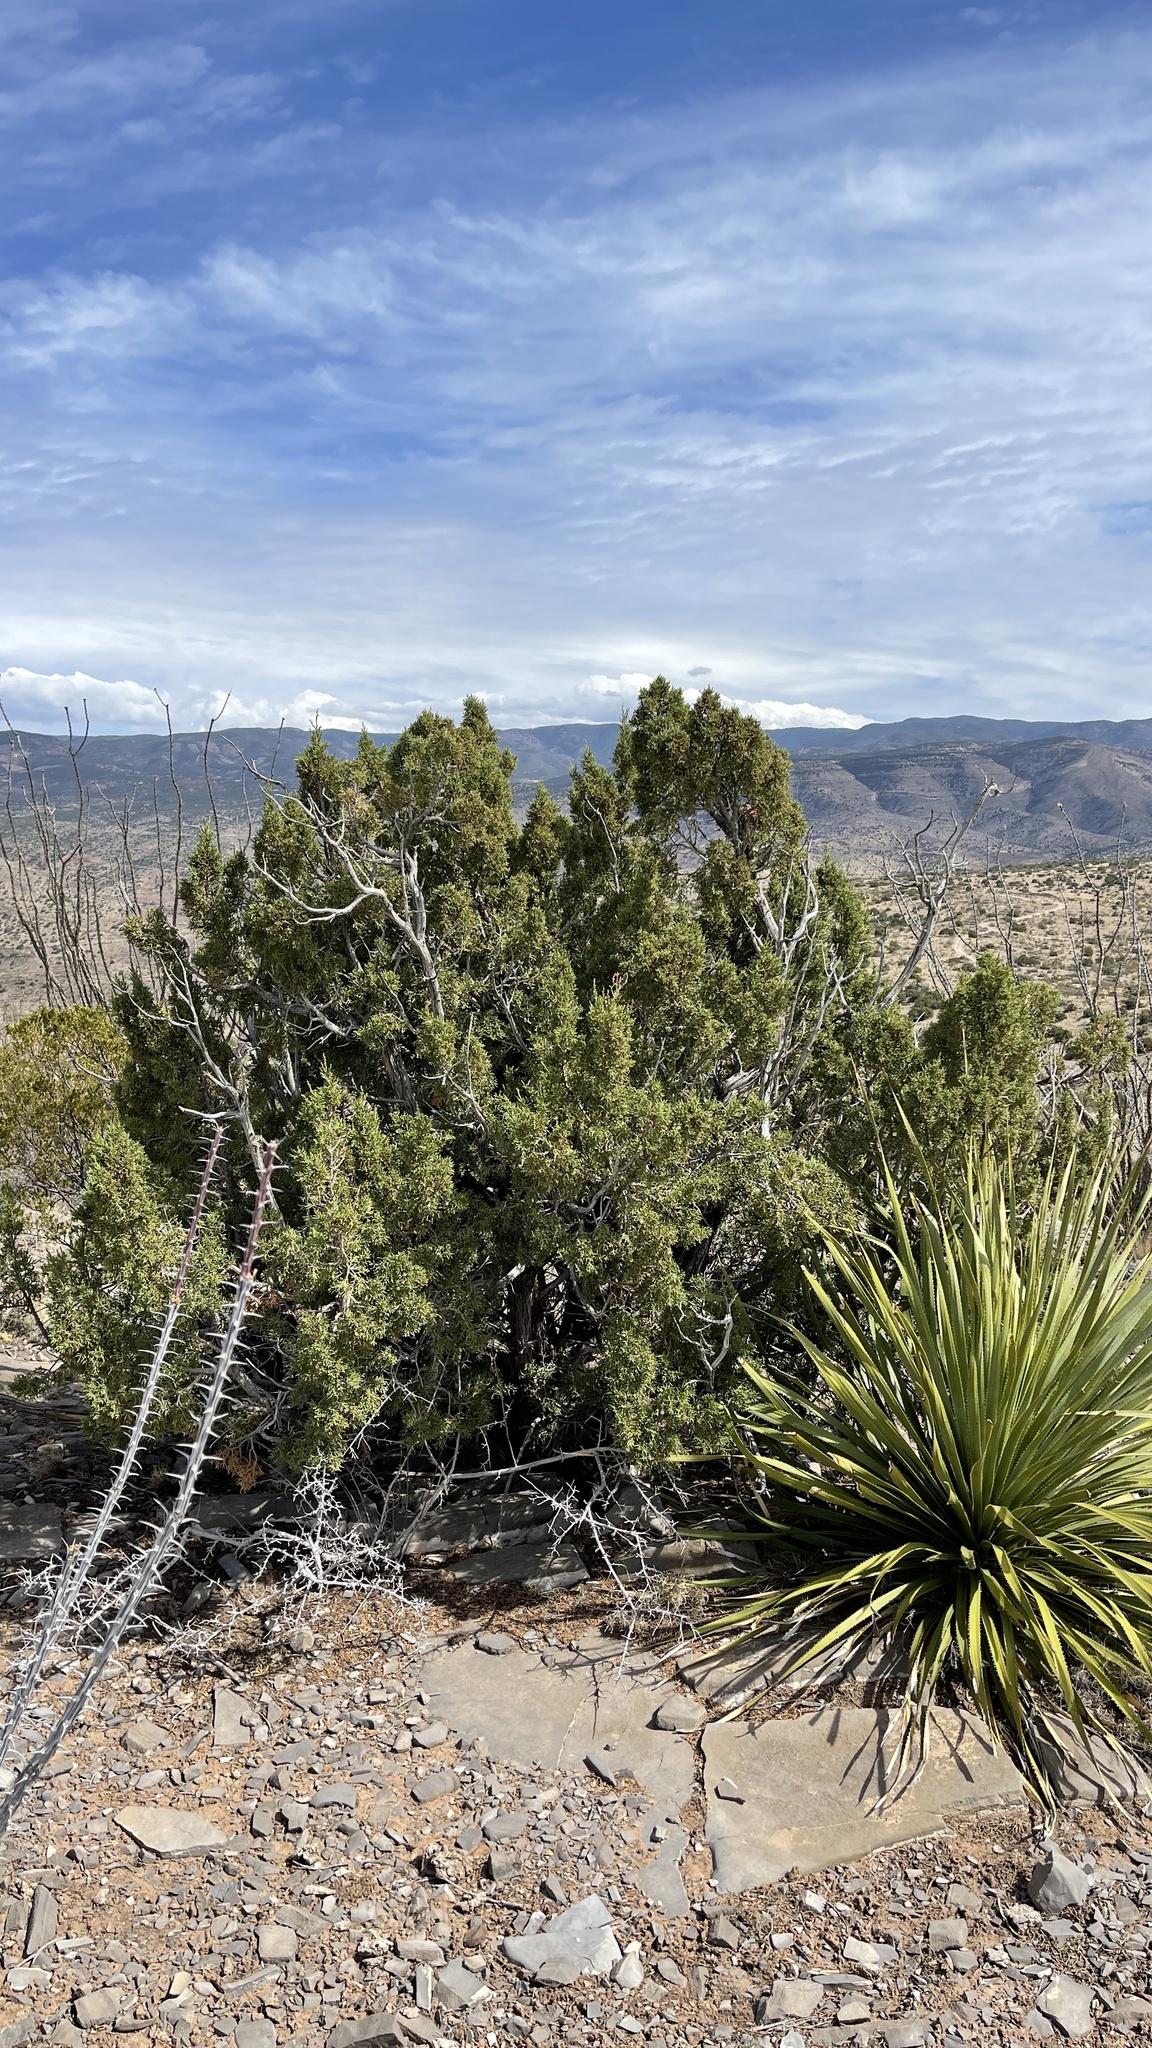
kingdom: Plantae
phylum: Tracheophyta
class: Pinopsida
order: Pinales
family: Cupressaceae
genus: Juniperus
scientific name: Juniperus monosperma
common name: One-seed juniper
